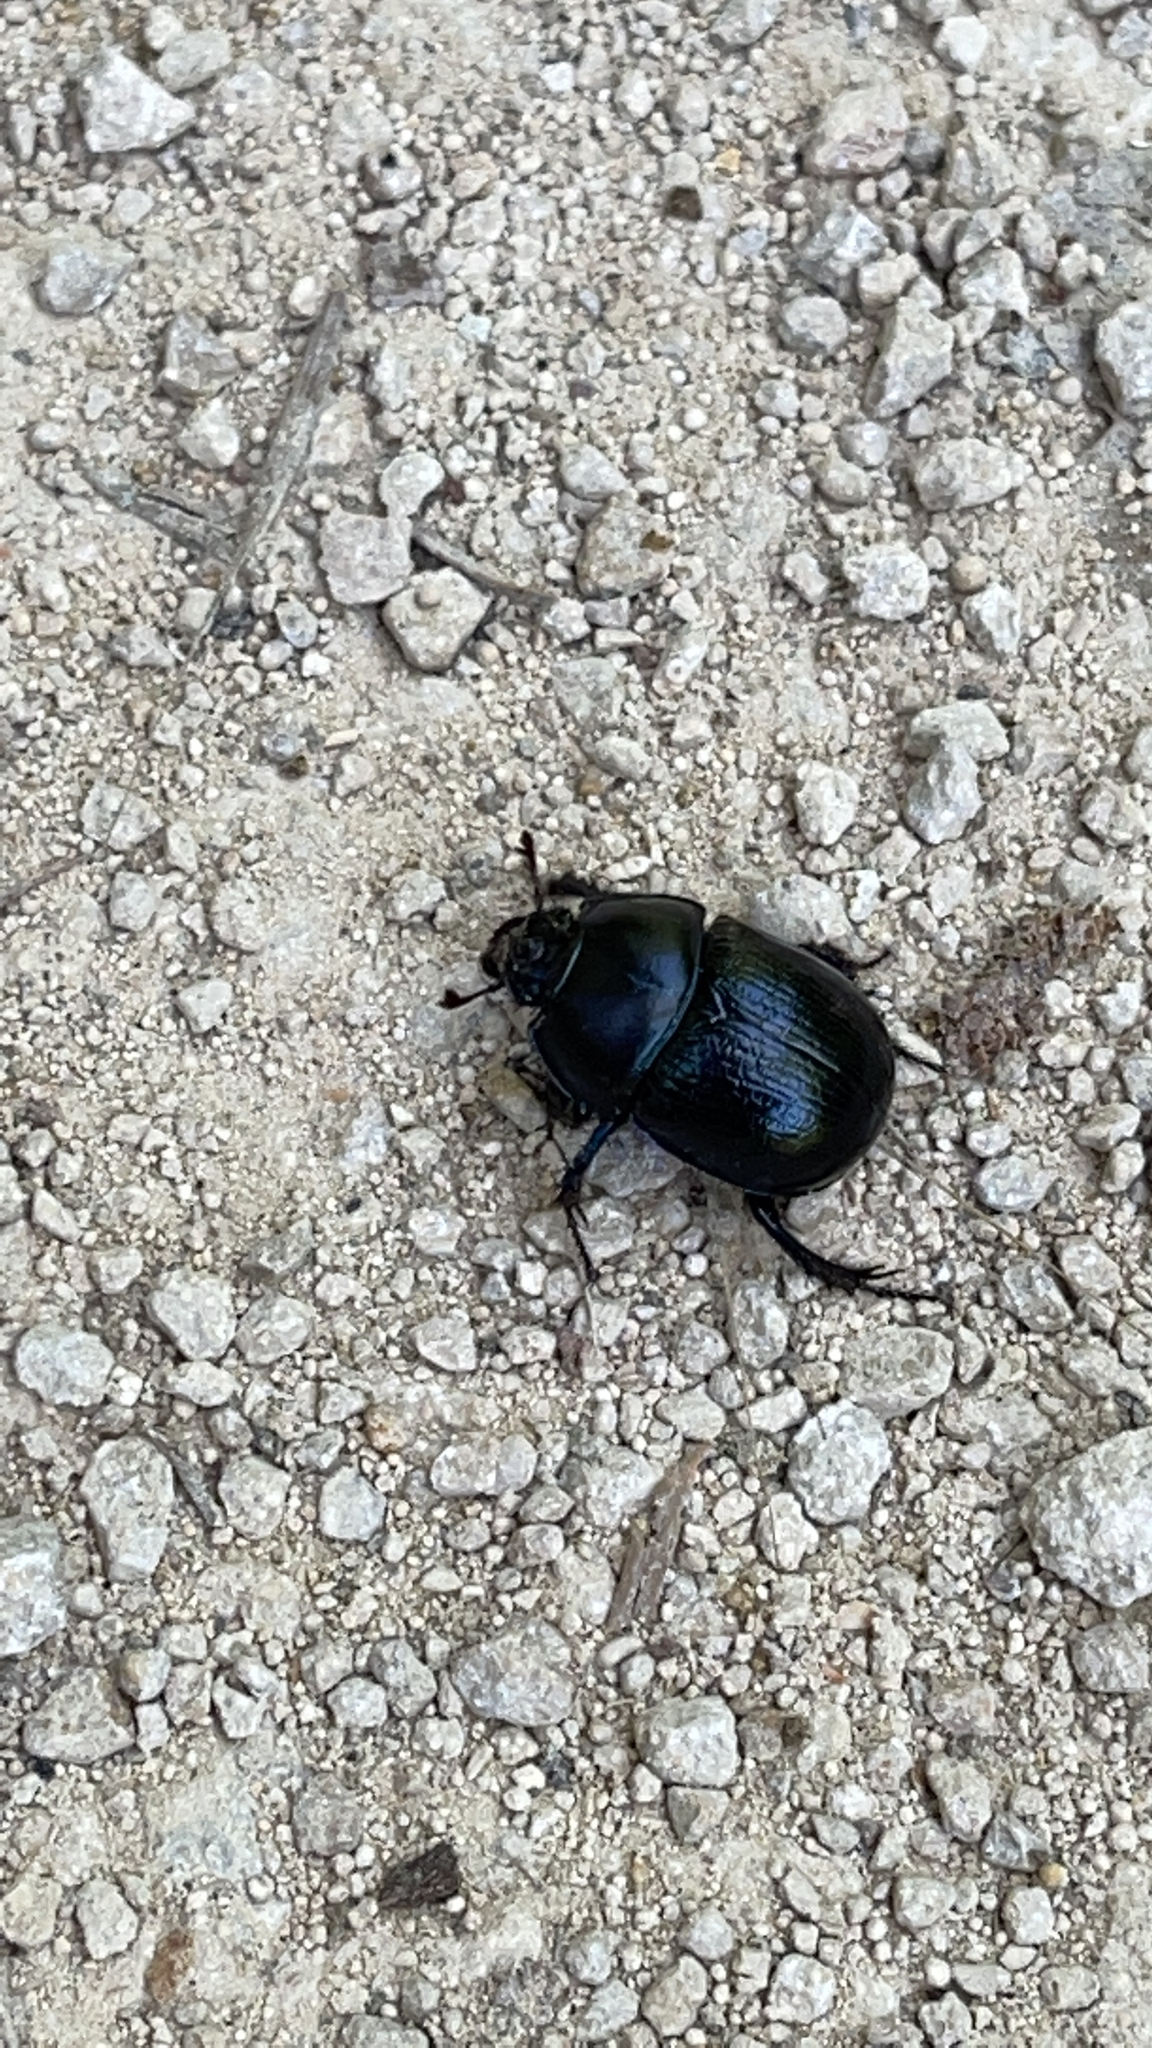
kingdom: Animalia
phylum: Arthropoda
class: Insecta
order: Coleoptera
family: Geotrupidae
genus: Anoplotrupes
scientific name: Anoplotrupes stercorosus
